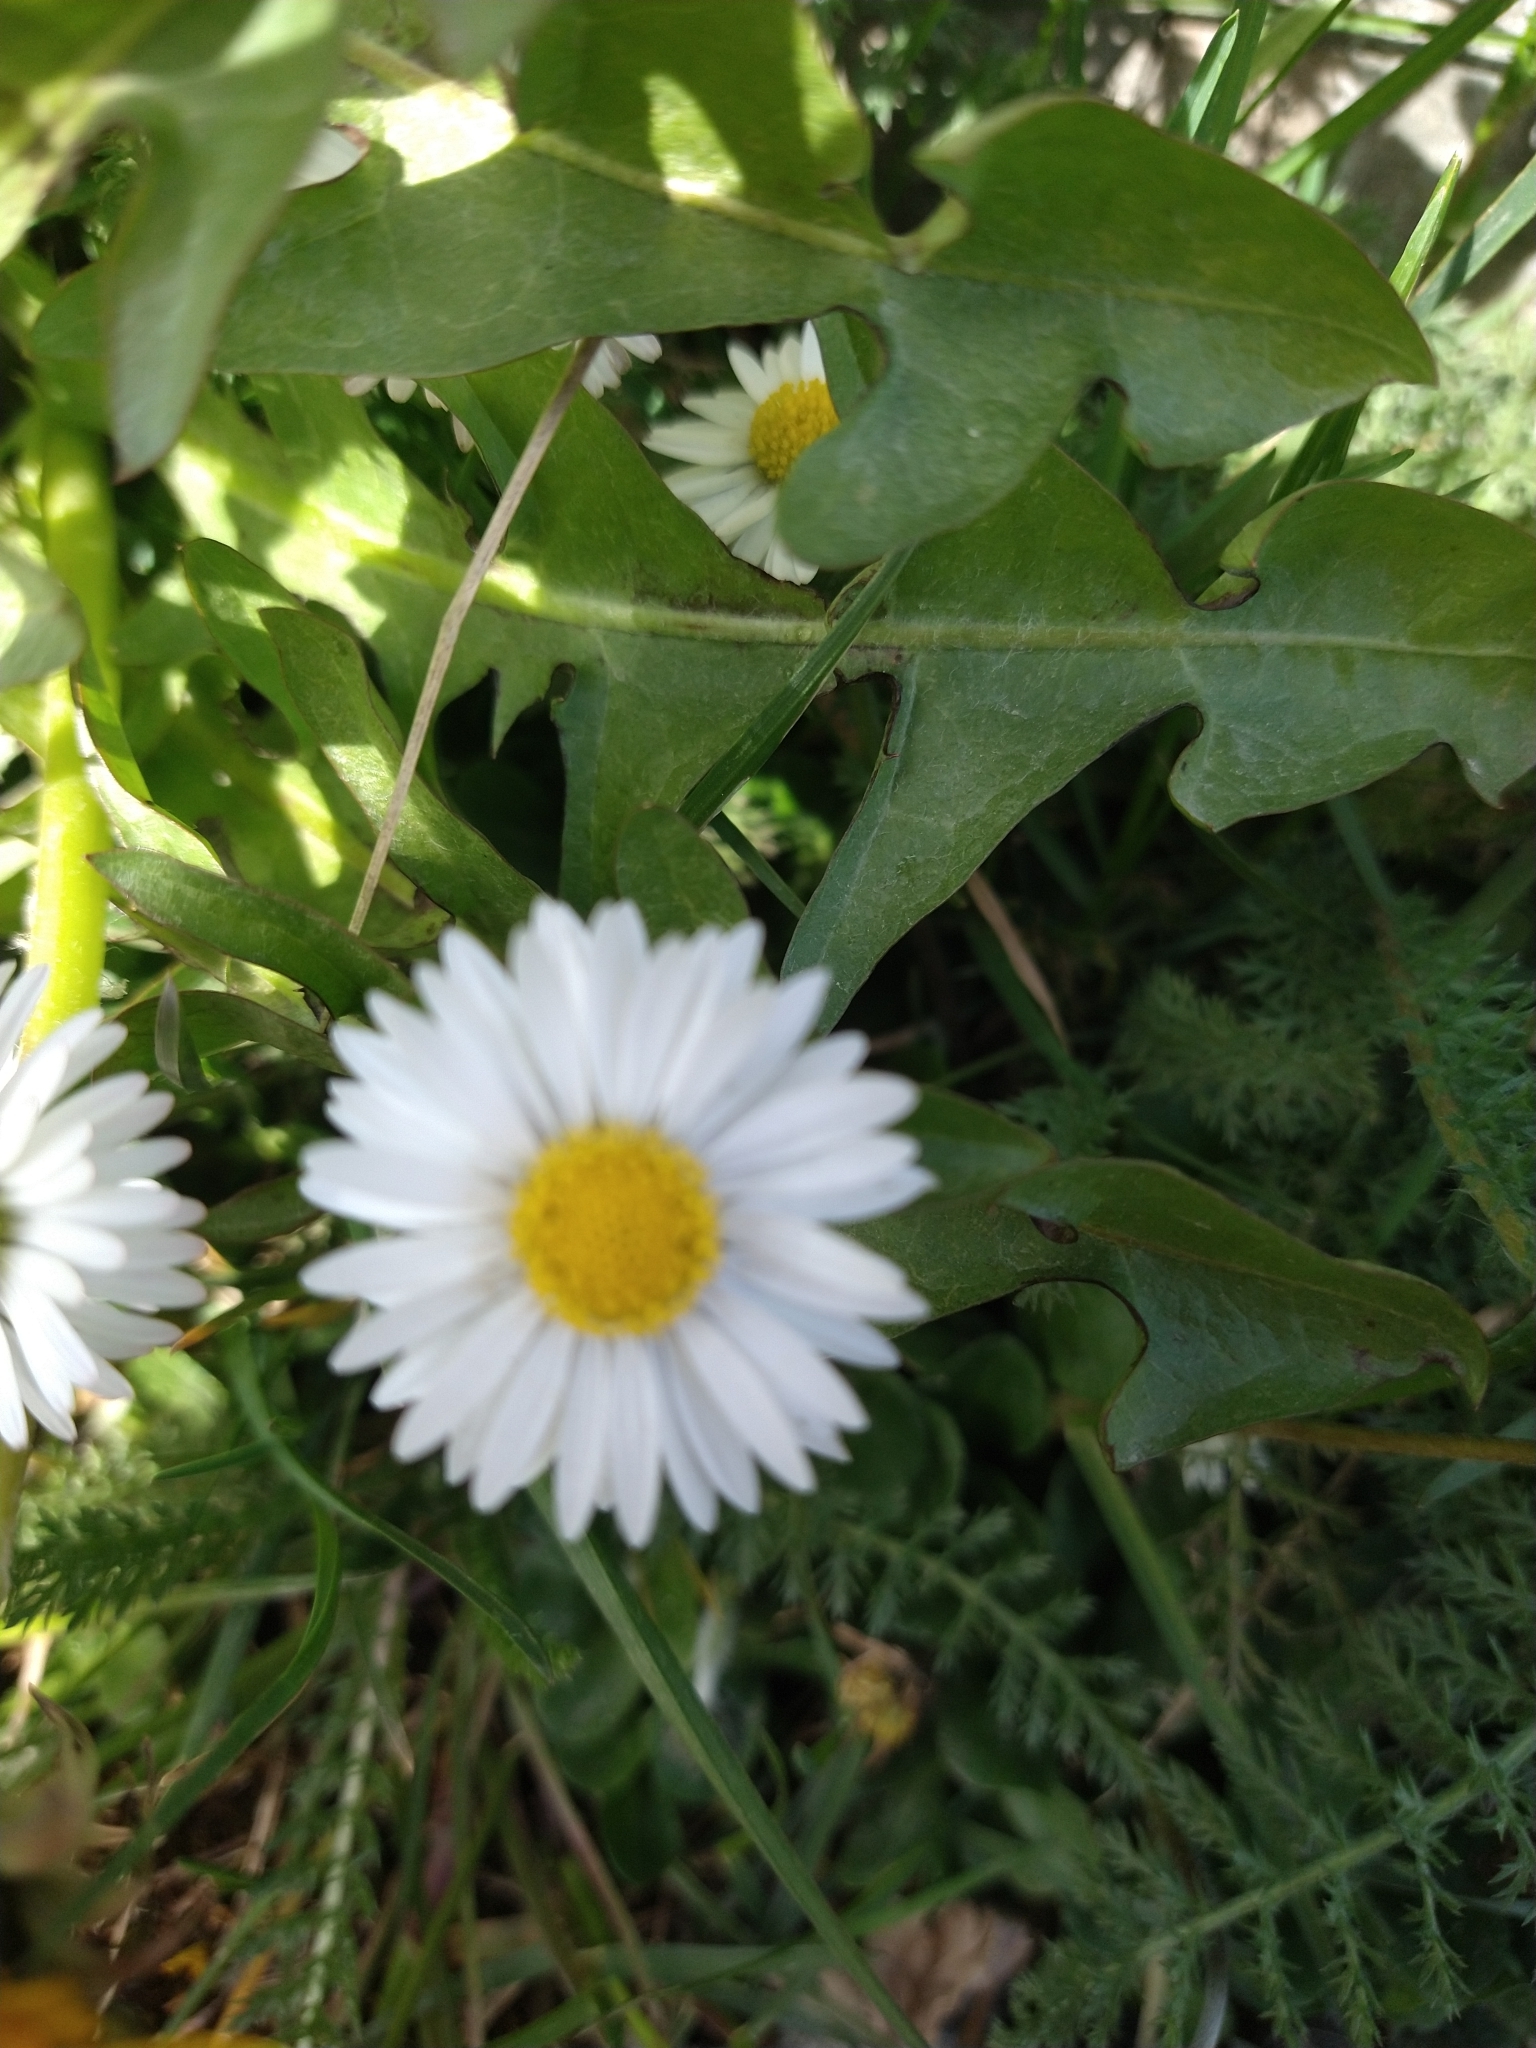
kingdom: Plantae
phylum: Tracheophyta
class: Magnoliopsida
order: Asterales
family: Asteraceae
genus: Bellis
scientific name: Bellis perennis
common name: Lawndaisy
